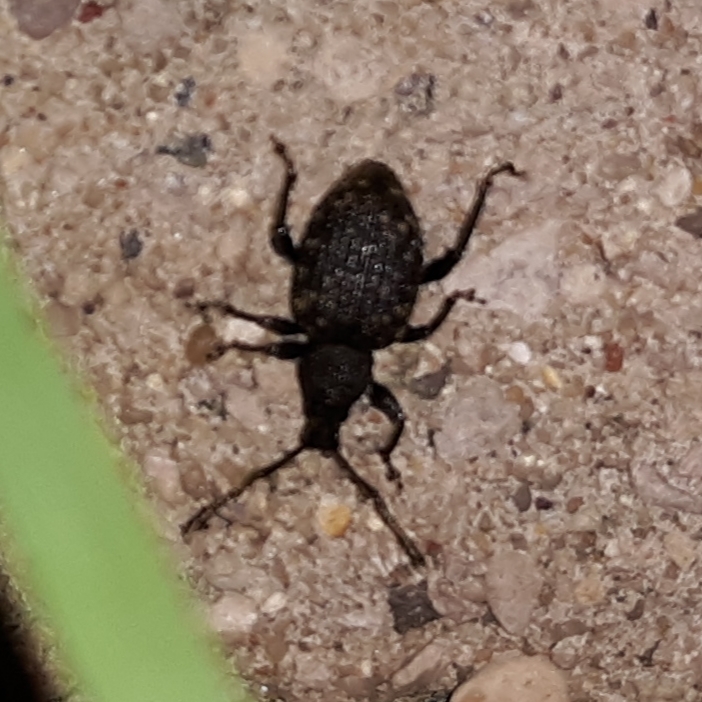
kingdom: Animalia
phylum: Arthropoda
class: Insecta
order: Coleoptera
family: Curculionidae
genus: Otiorhynchus
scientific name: Otiorhynchus sulcatus
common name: Black vine weevil
